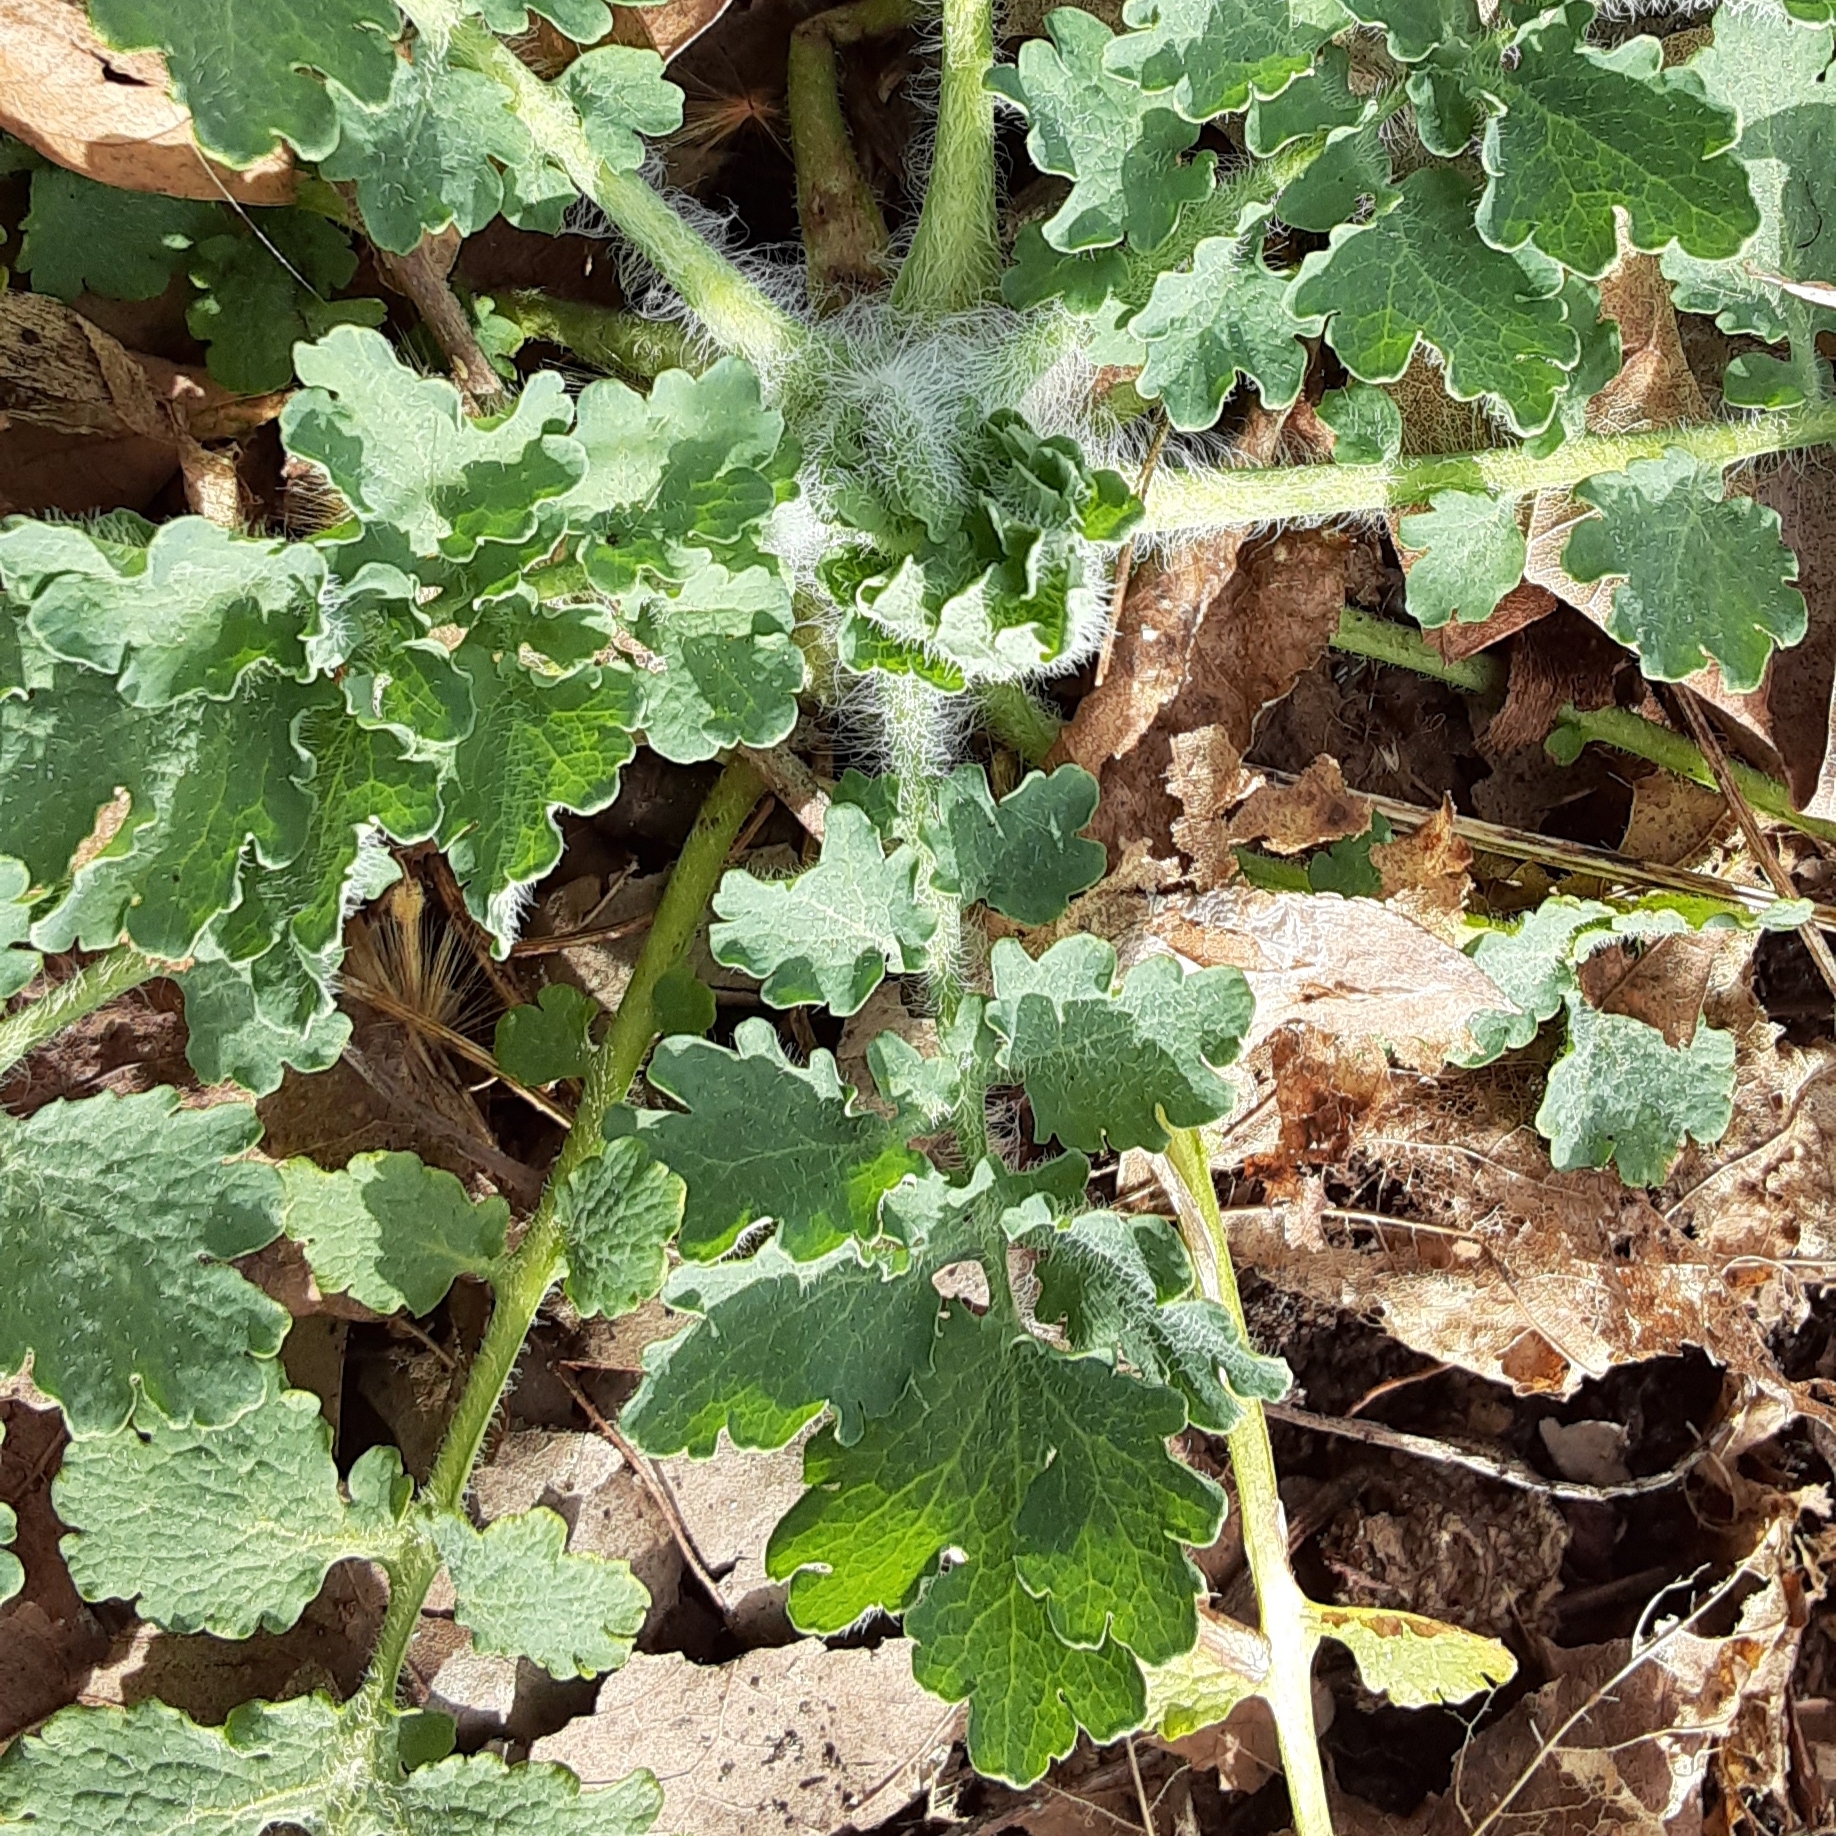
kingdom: Plantae
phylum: Tracheophyta
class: Magnoliopsida
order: Ranunculales
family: Papaveraceae
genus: Chelidonium
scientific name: Chelidonium majus
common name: Greater celandine
